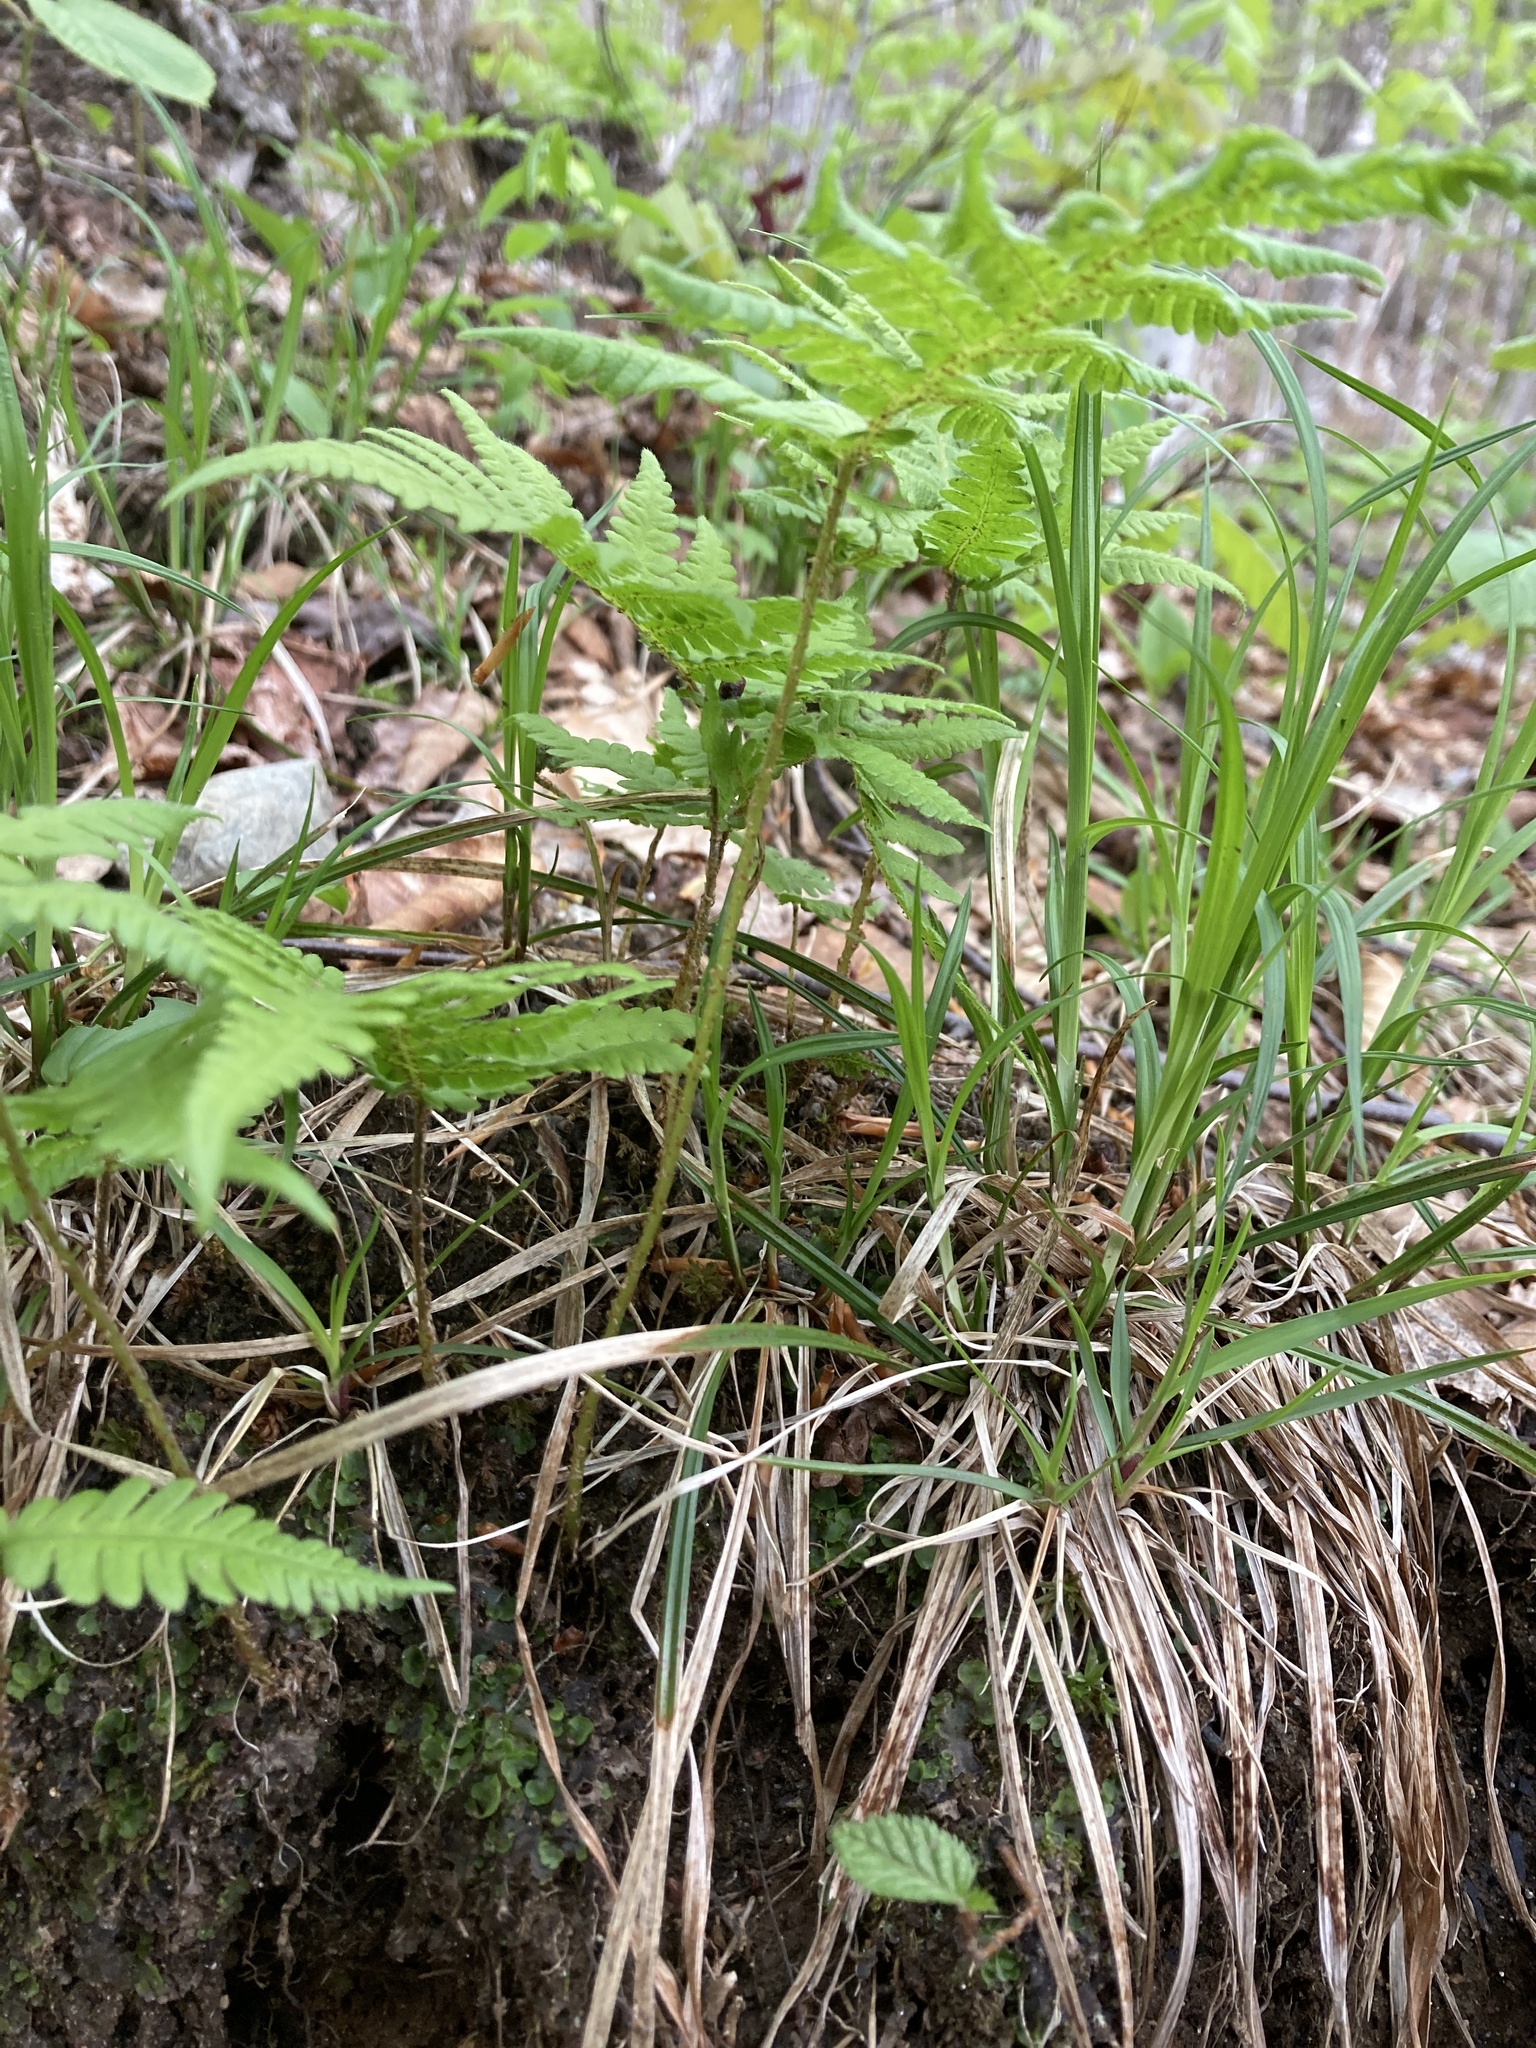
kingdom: Plantae
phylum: Tracheophyta
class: Polypodiopsida
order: Polypodiales
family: Thelypteridaceae
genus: Phegopteris
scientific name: Phegopteris connectilis
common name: Beech fern
